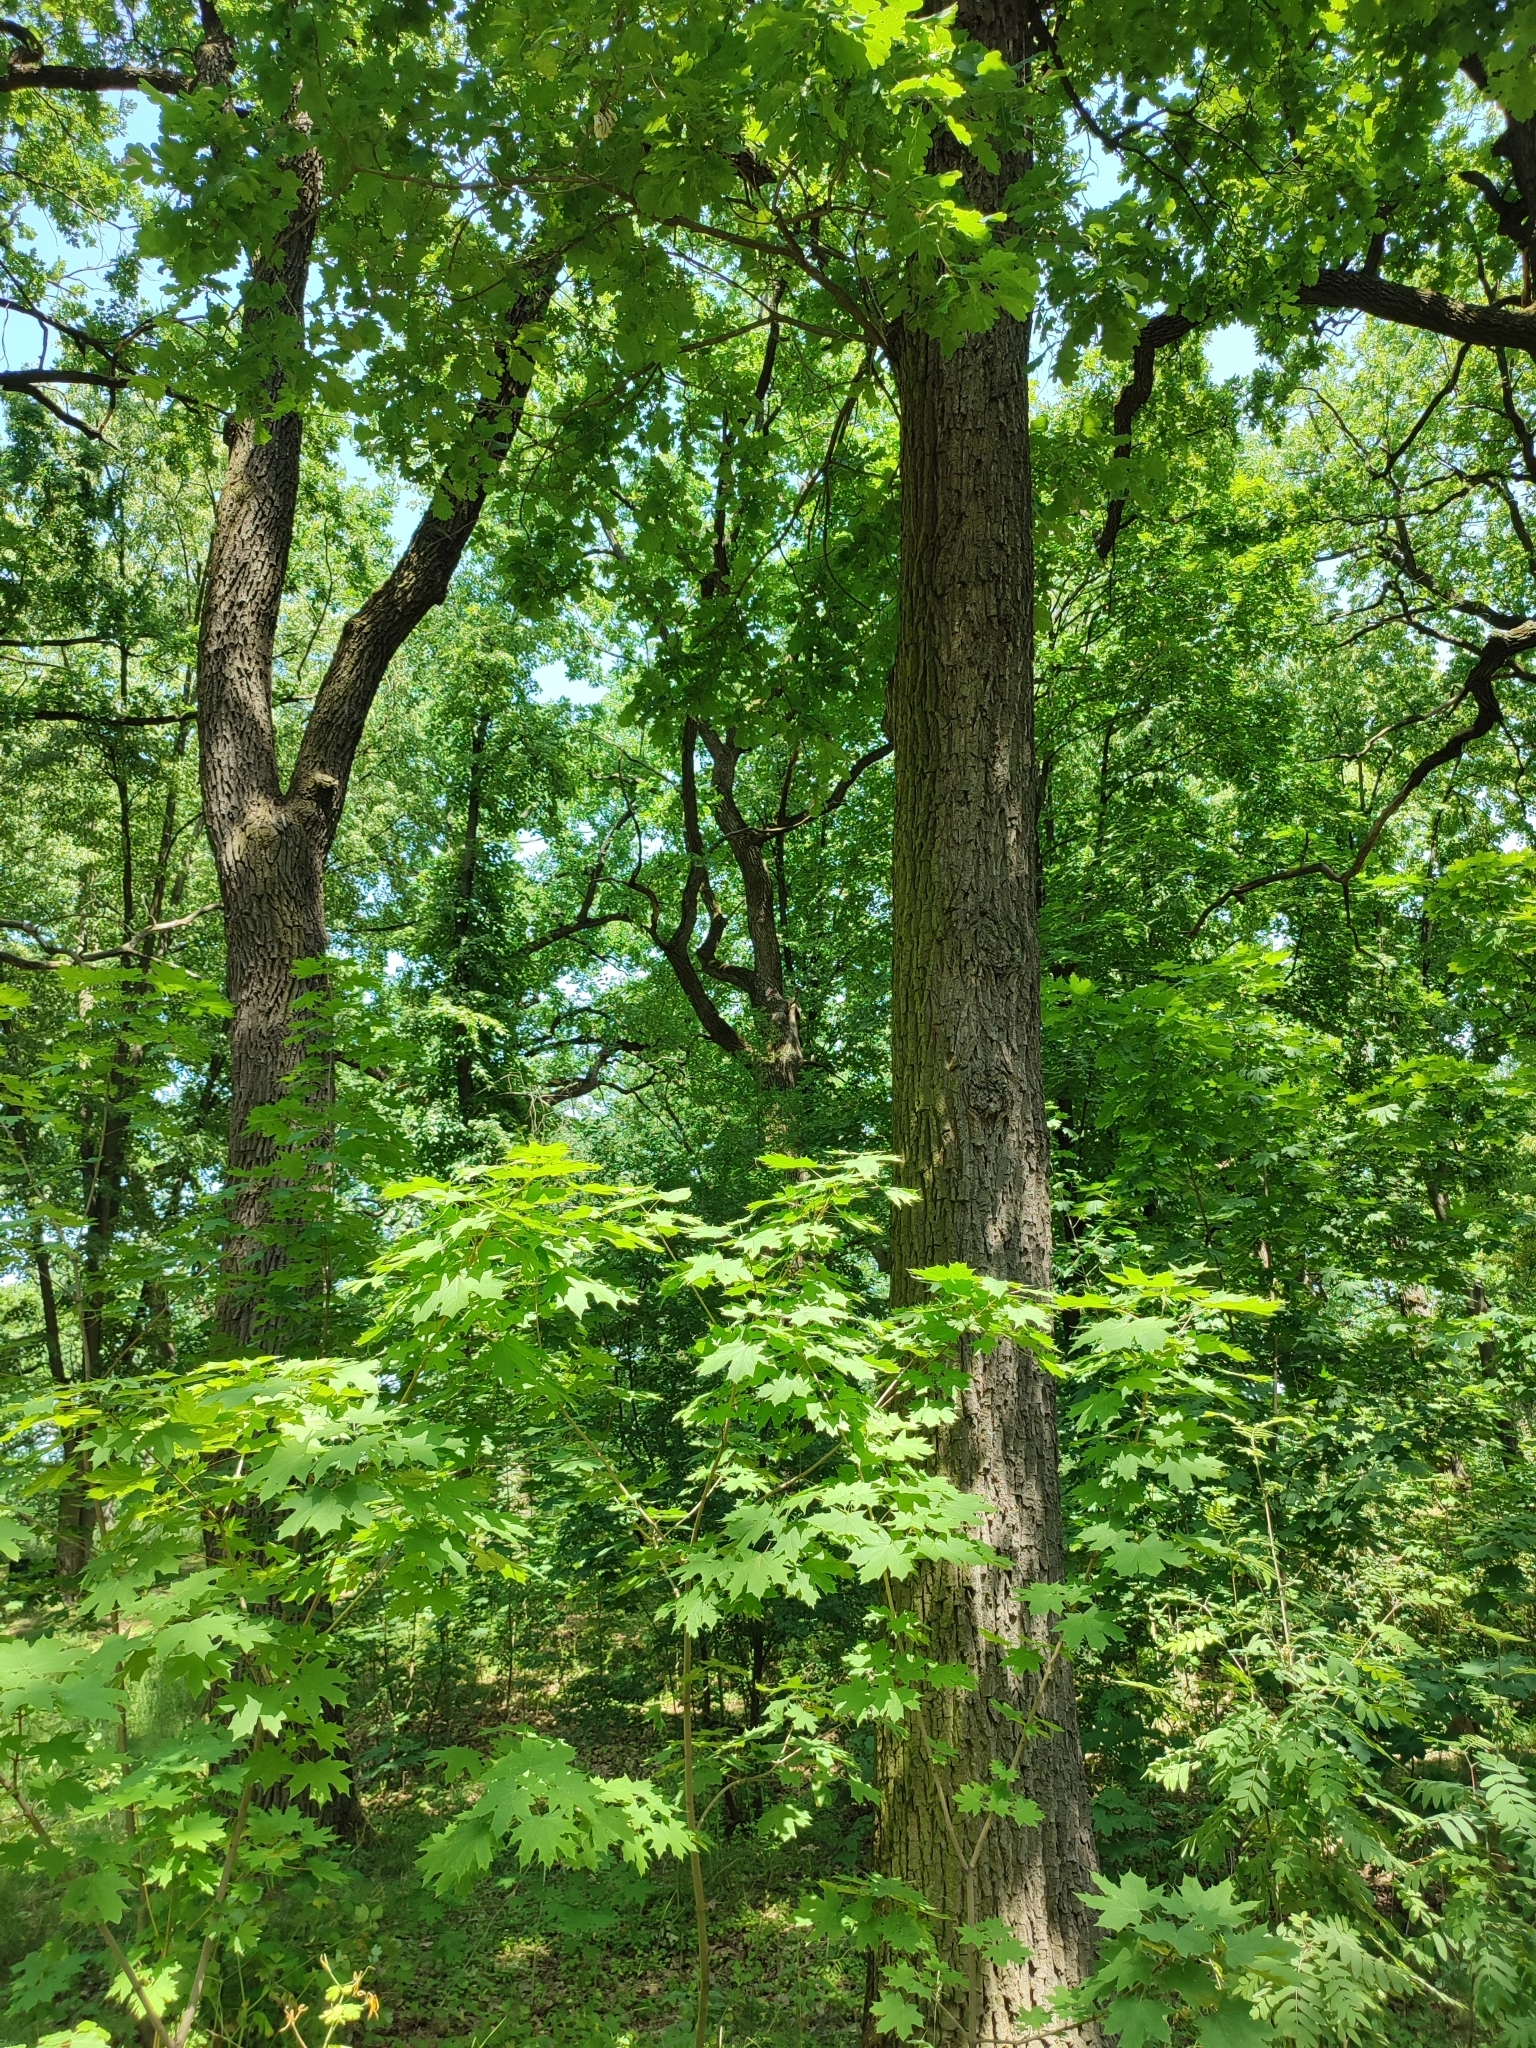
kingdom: Plantae
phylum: Tracheophyta
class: Magnoliopsida
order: Fagales
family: Fagaceae
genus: Quercus
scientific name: Quercus robur
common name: Pedunculate oak
